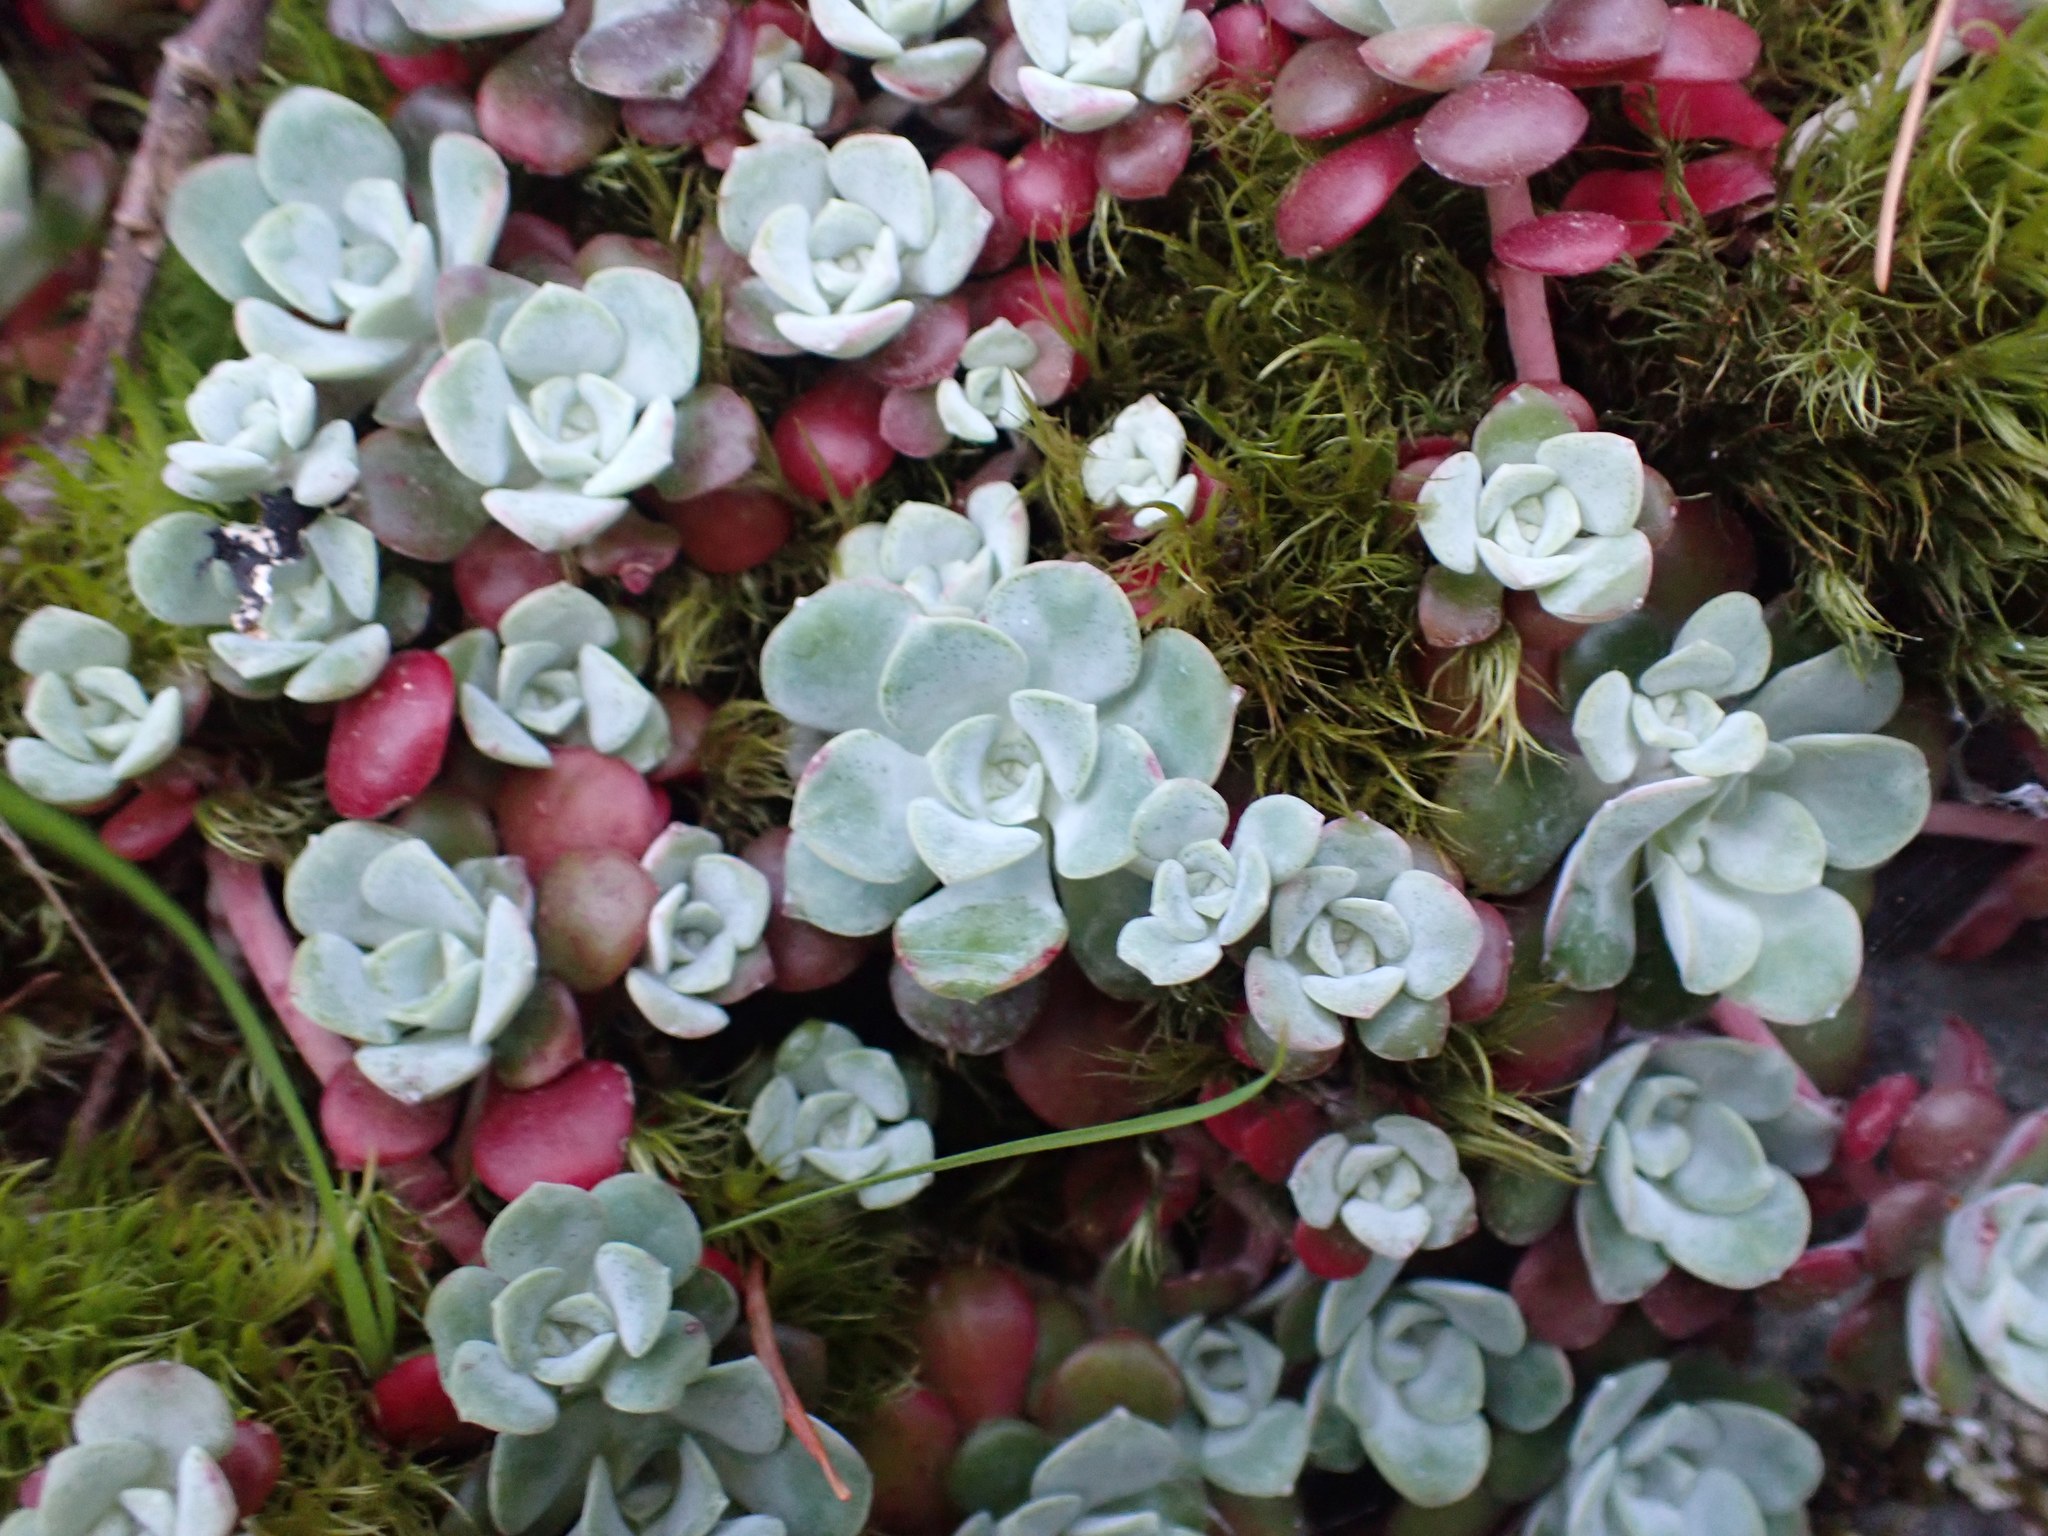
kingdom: Plantae
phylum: Tracheophyta
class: Magnoliopsida
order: Saxifragales
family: Crassulaceae
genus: Sedum
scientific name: Sedum spathulifolium
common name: Colorado stonecrop
